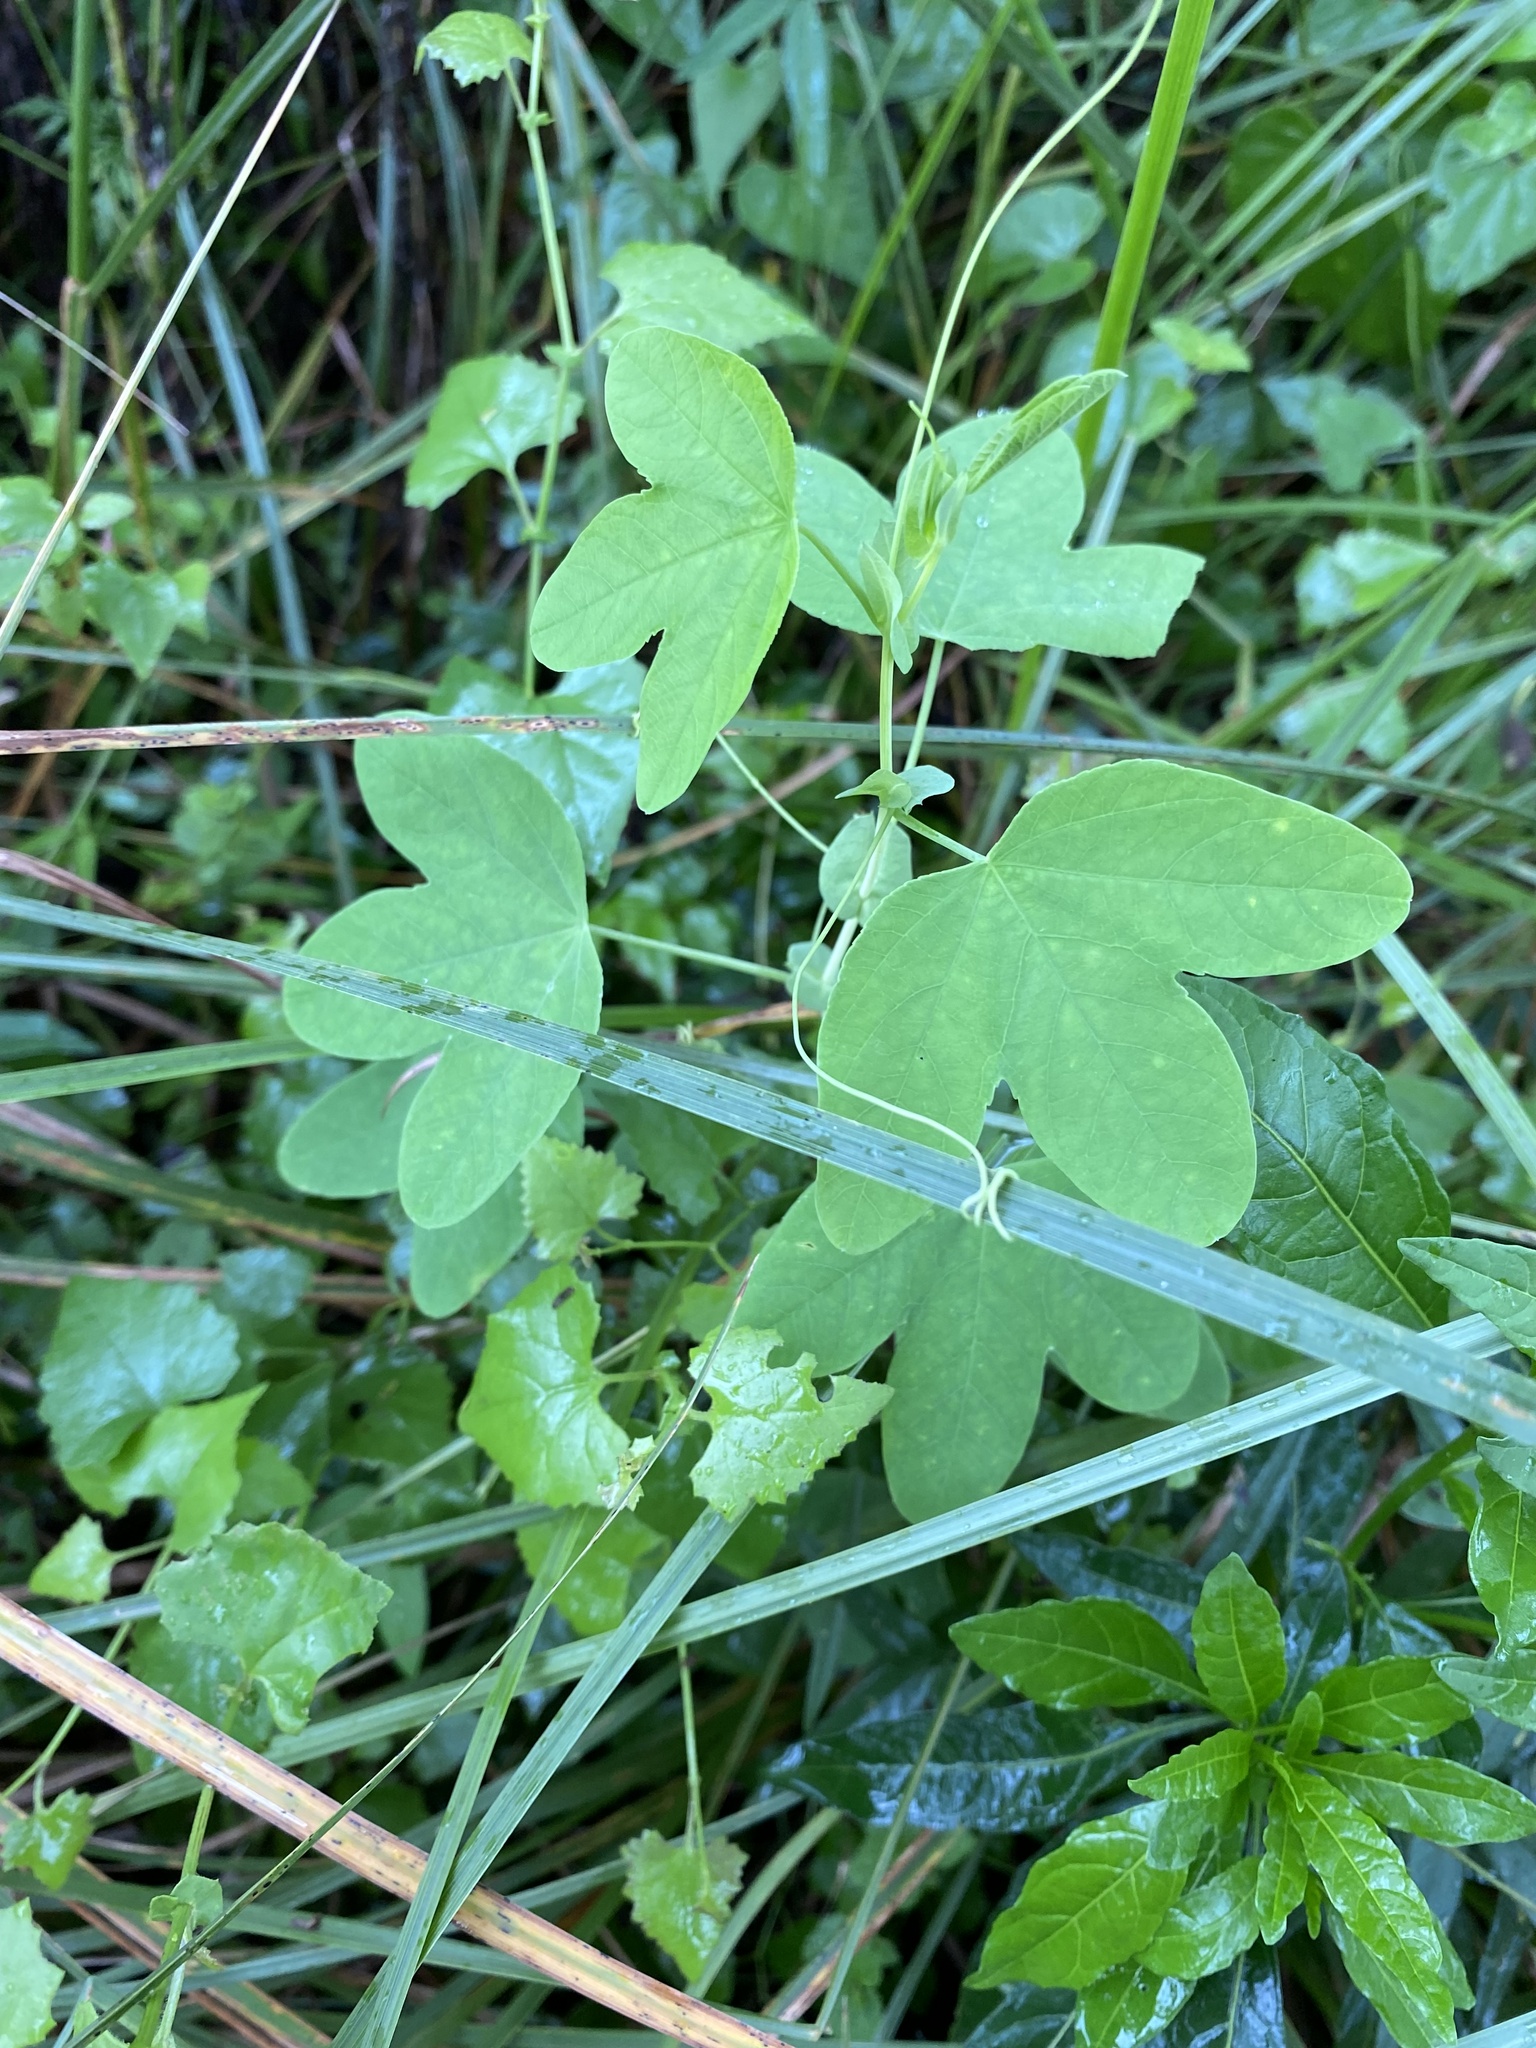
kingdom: Plantae
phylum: Tracheophyta
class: Magnoliopsida
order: Malpighiales
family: Passifloraceae
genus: Passiflora
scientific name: Passiflora subpeltata
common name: White passionflower
